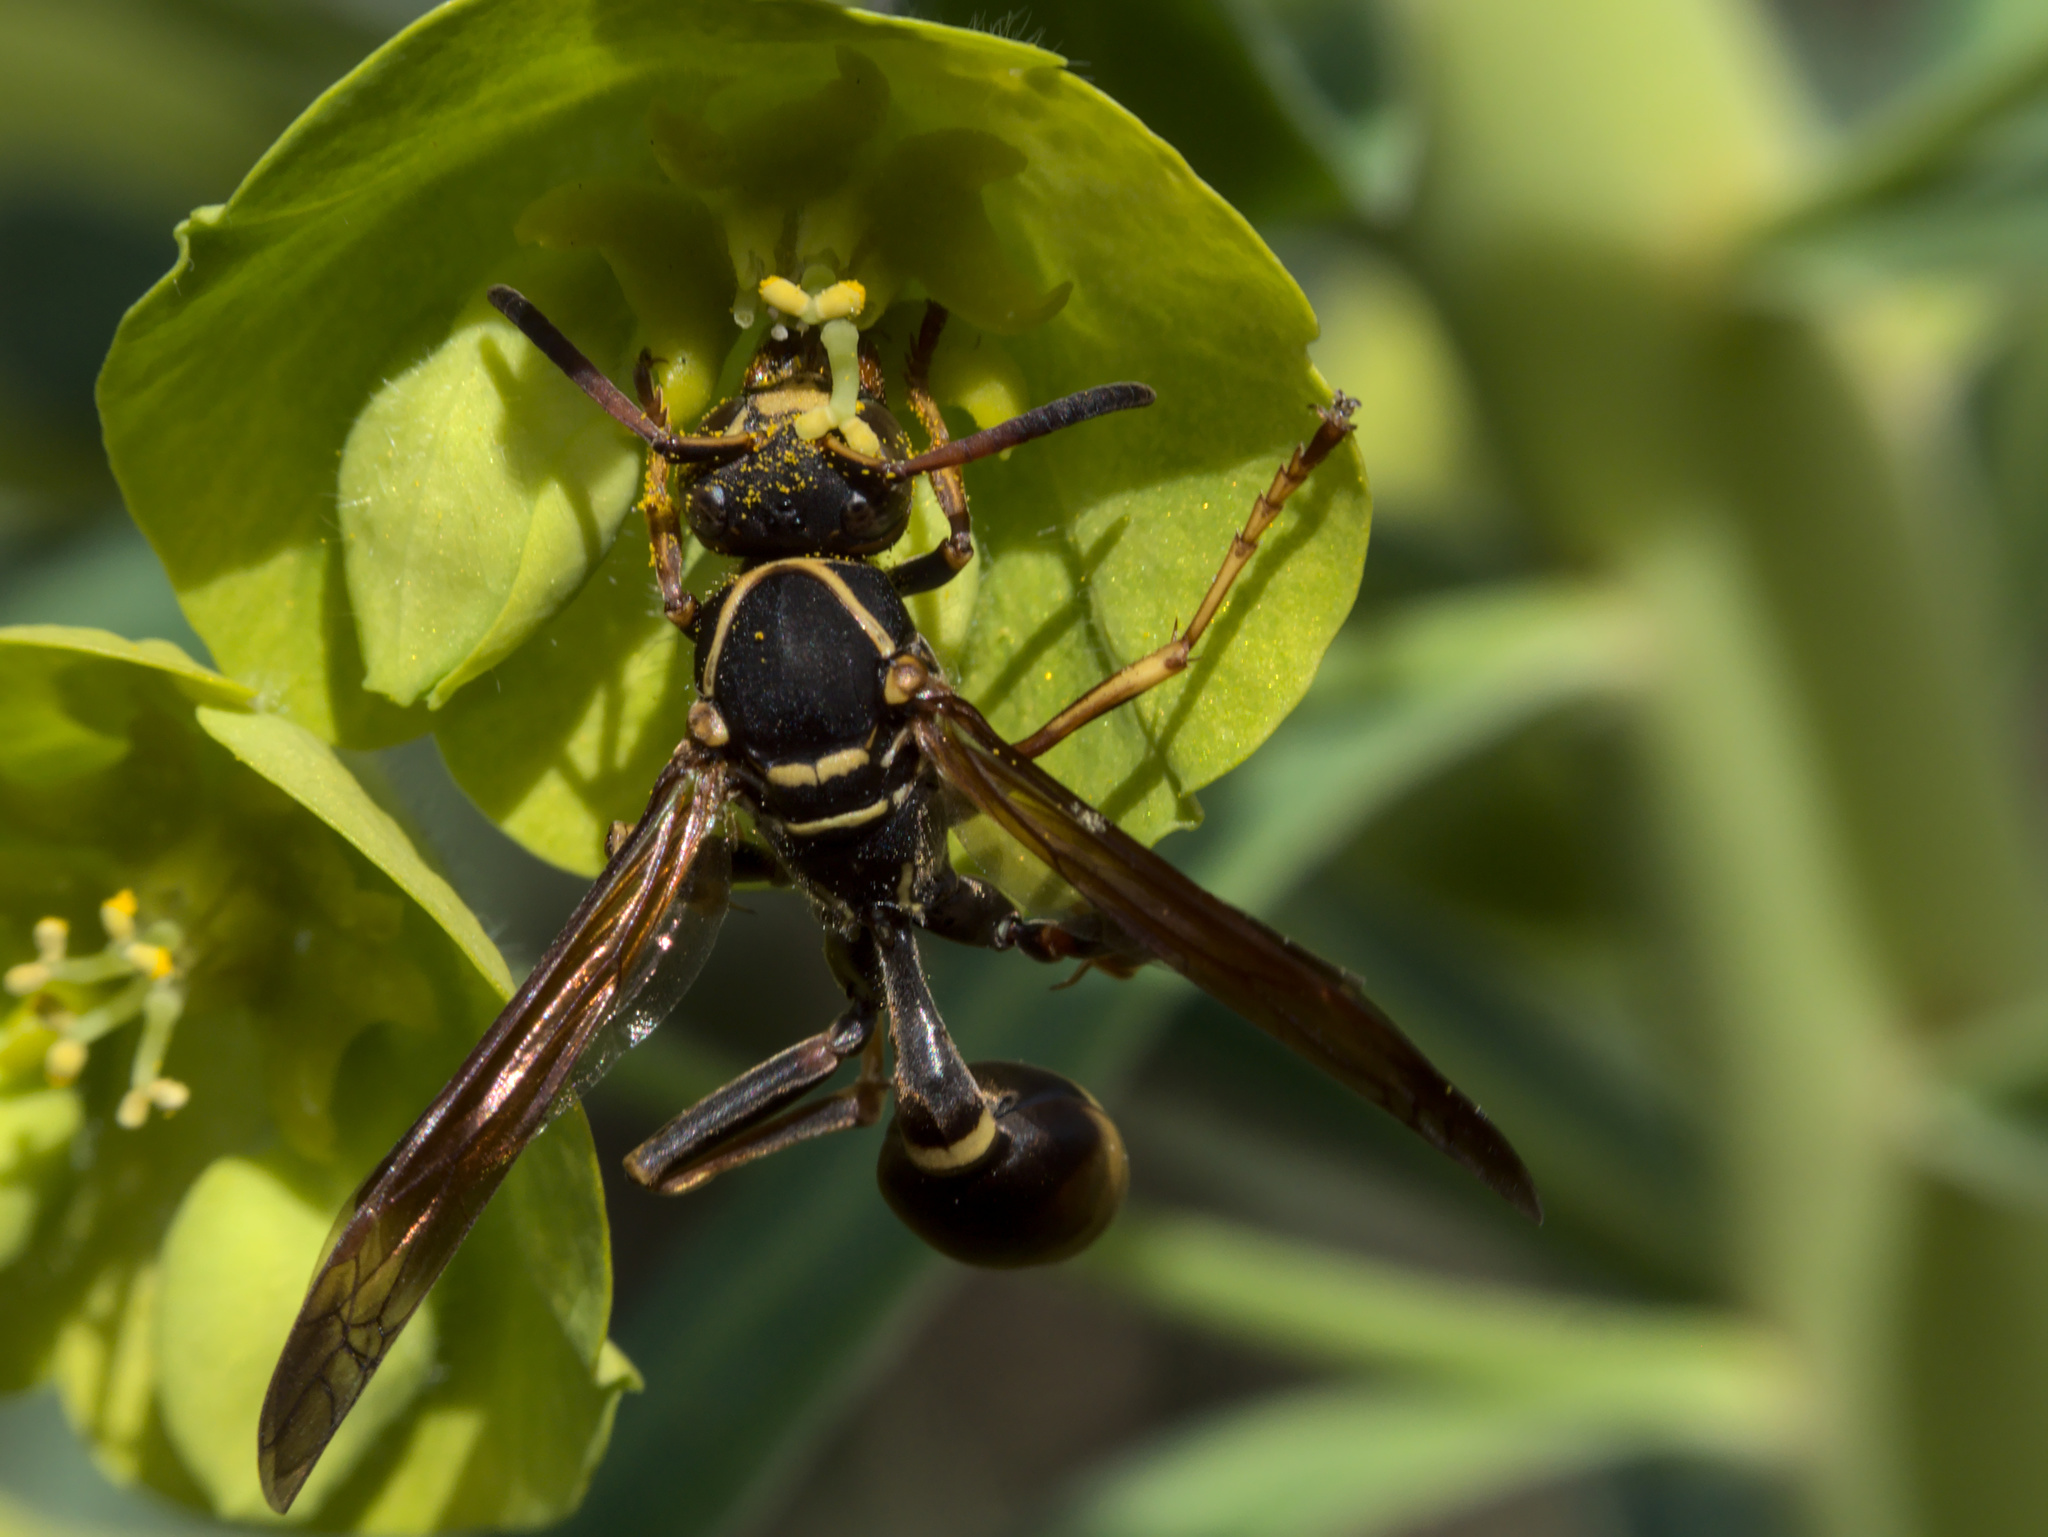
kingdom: Animalia
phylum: Arthropoda
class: Insecta
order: Hymenoptera
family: Vespidae
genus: Mischocyttarus
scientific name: Mischocyttarus flavitarsis
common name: Wasp
